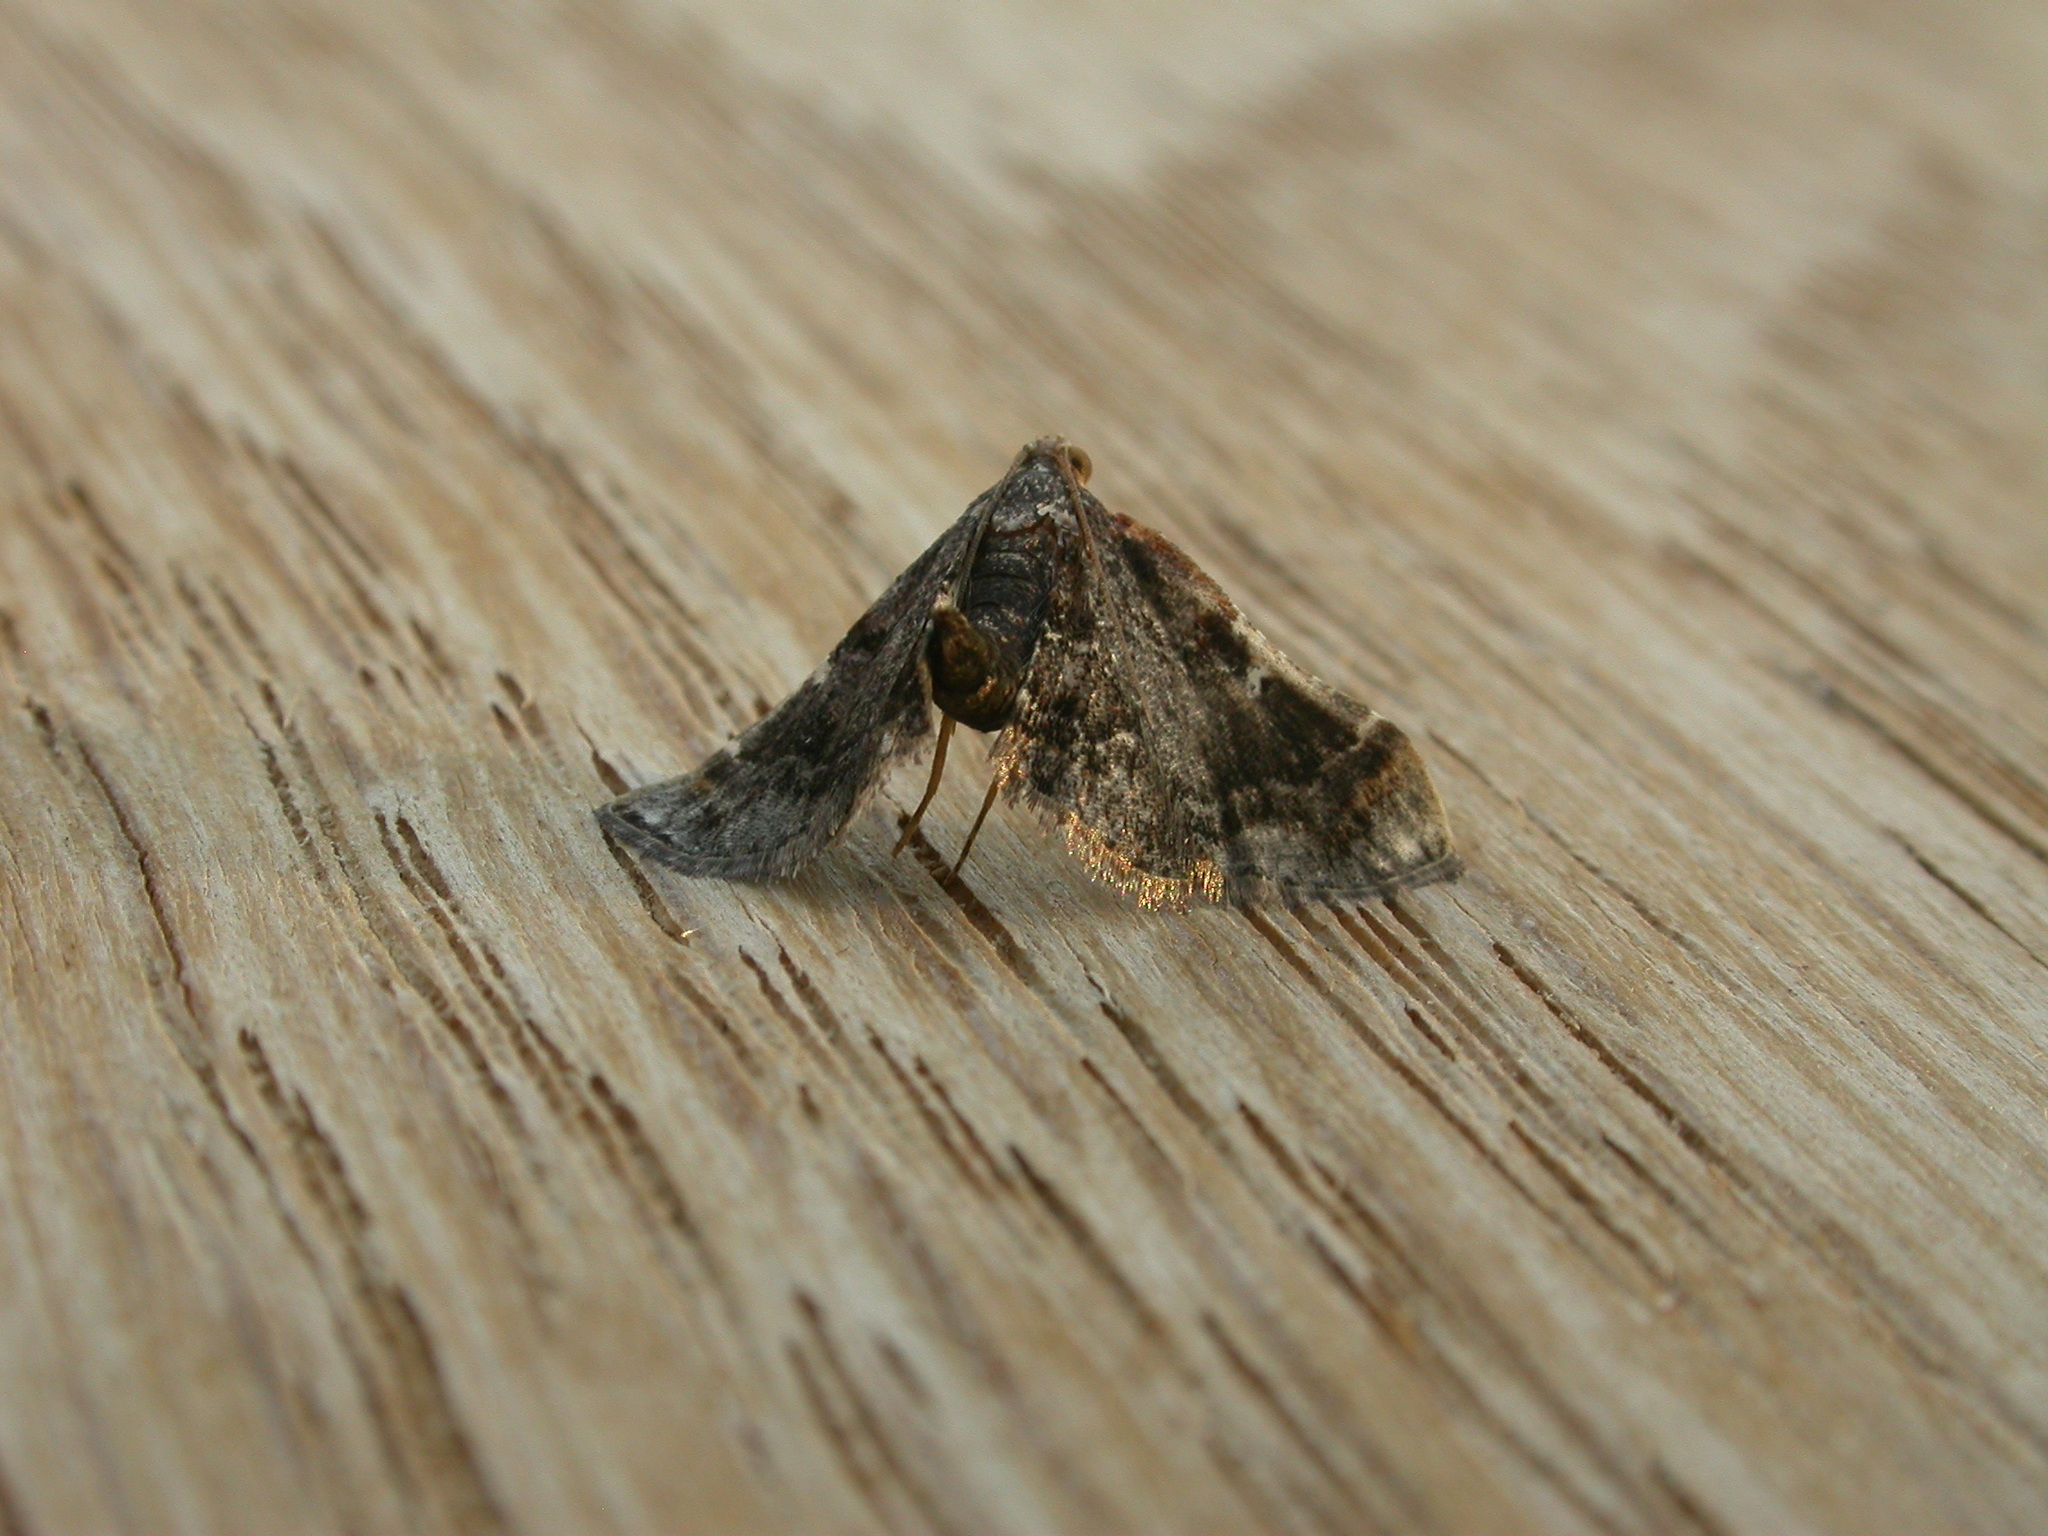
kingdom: Animalia
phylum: Arthropoda
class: Insecta
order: Lepidoptera
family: Pyralidae
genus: Scenedra
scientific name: Scenedra decoratalis
